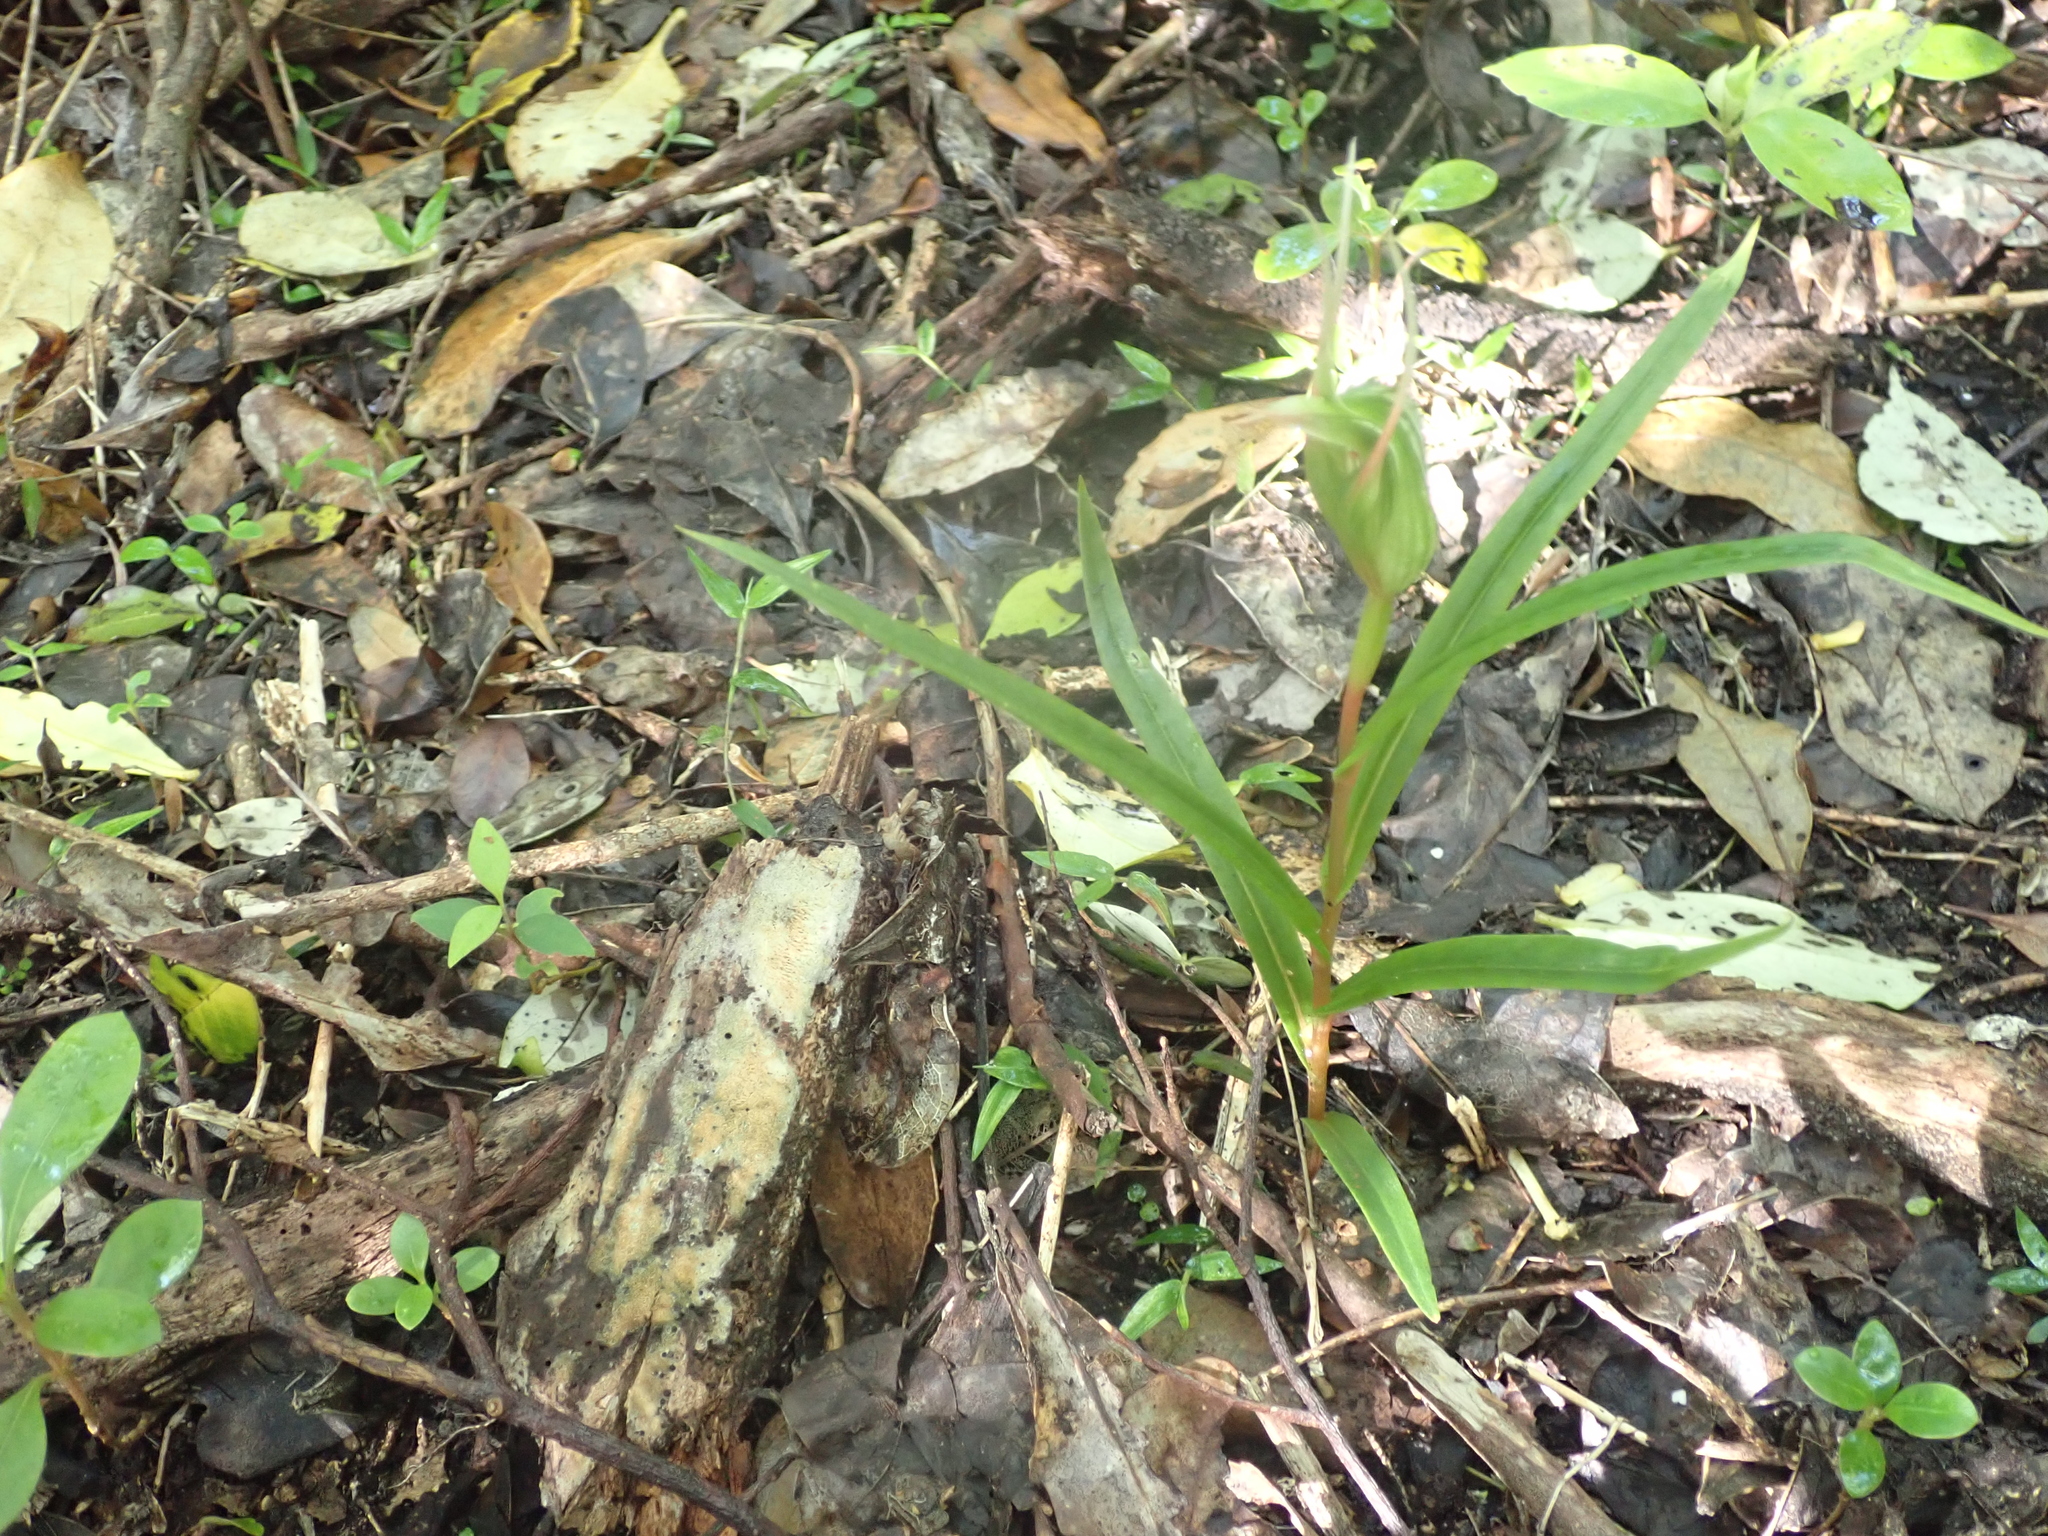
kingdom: Plantae
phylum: Tracheophyta
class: Liliopsida
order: Asparagales
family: Orchidaceae
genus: Pterostylis
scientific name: Pterostylis banksii
